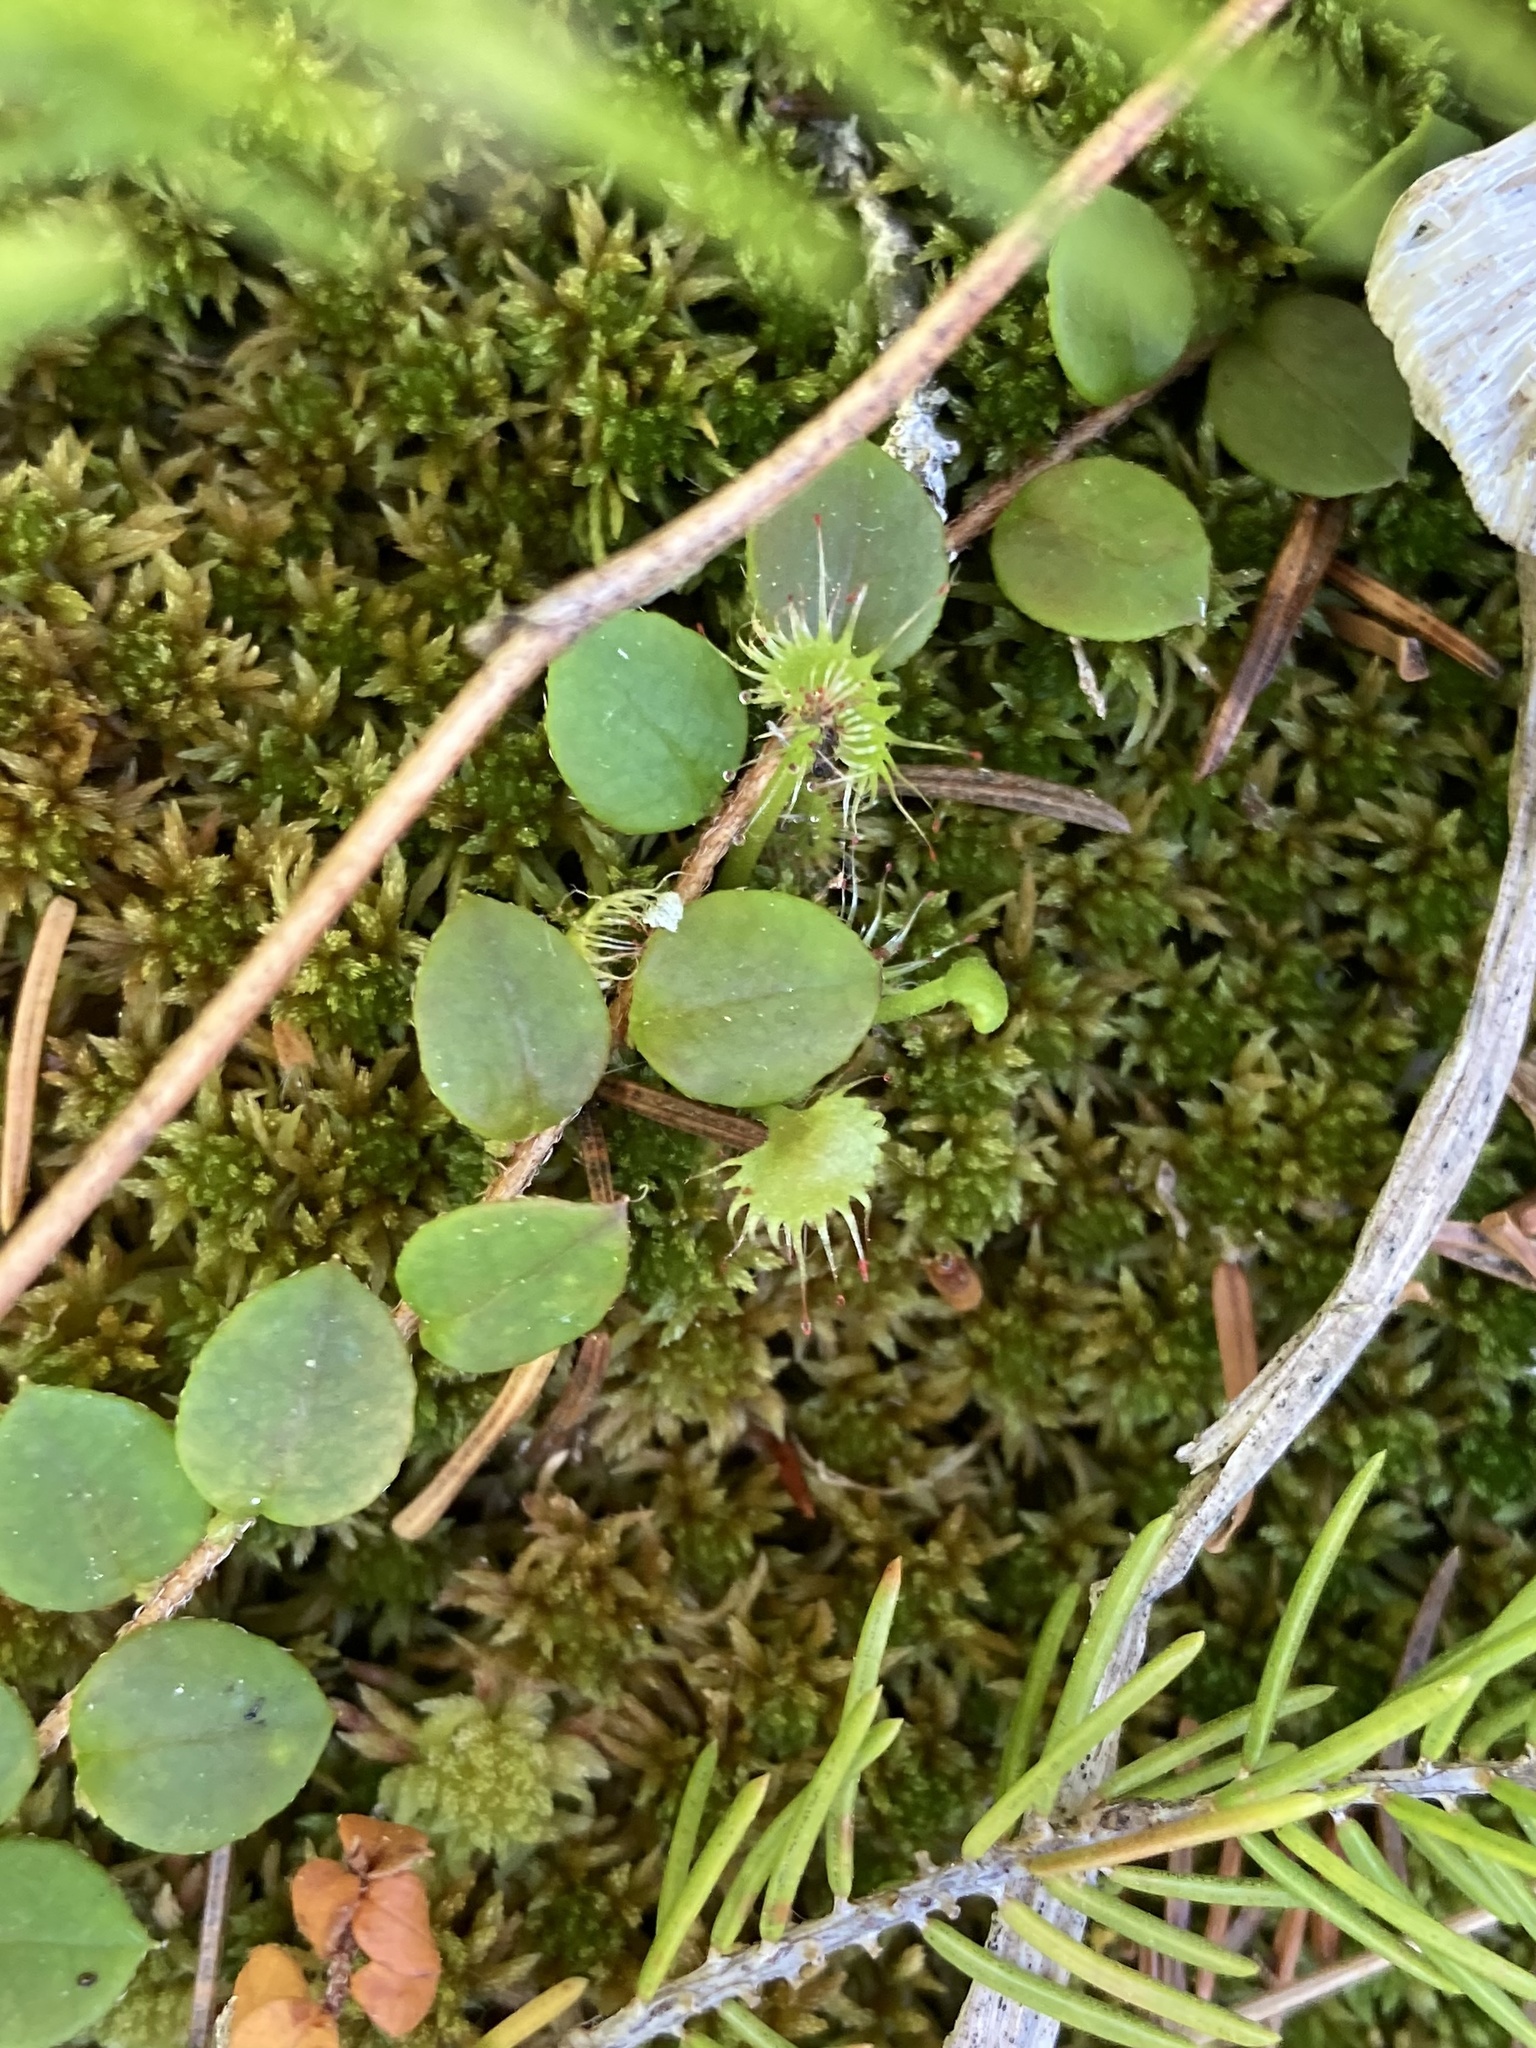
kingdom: Plantae
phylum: Tracheophyta
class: Magnoliopsida
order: Ericales
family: Ericaceae
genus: Gaultheria
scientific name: Gaultheria hispidula
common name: Cancer wintergreen
